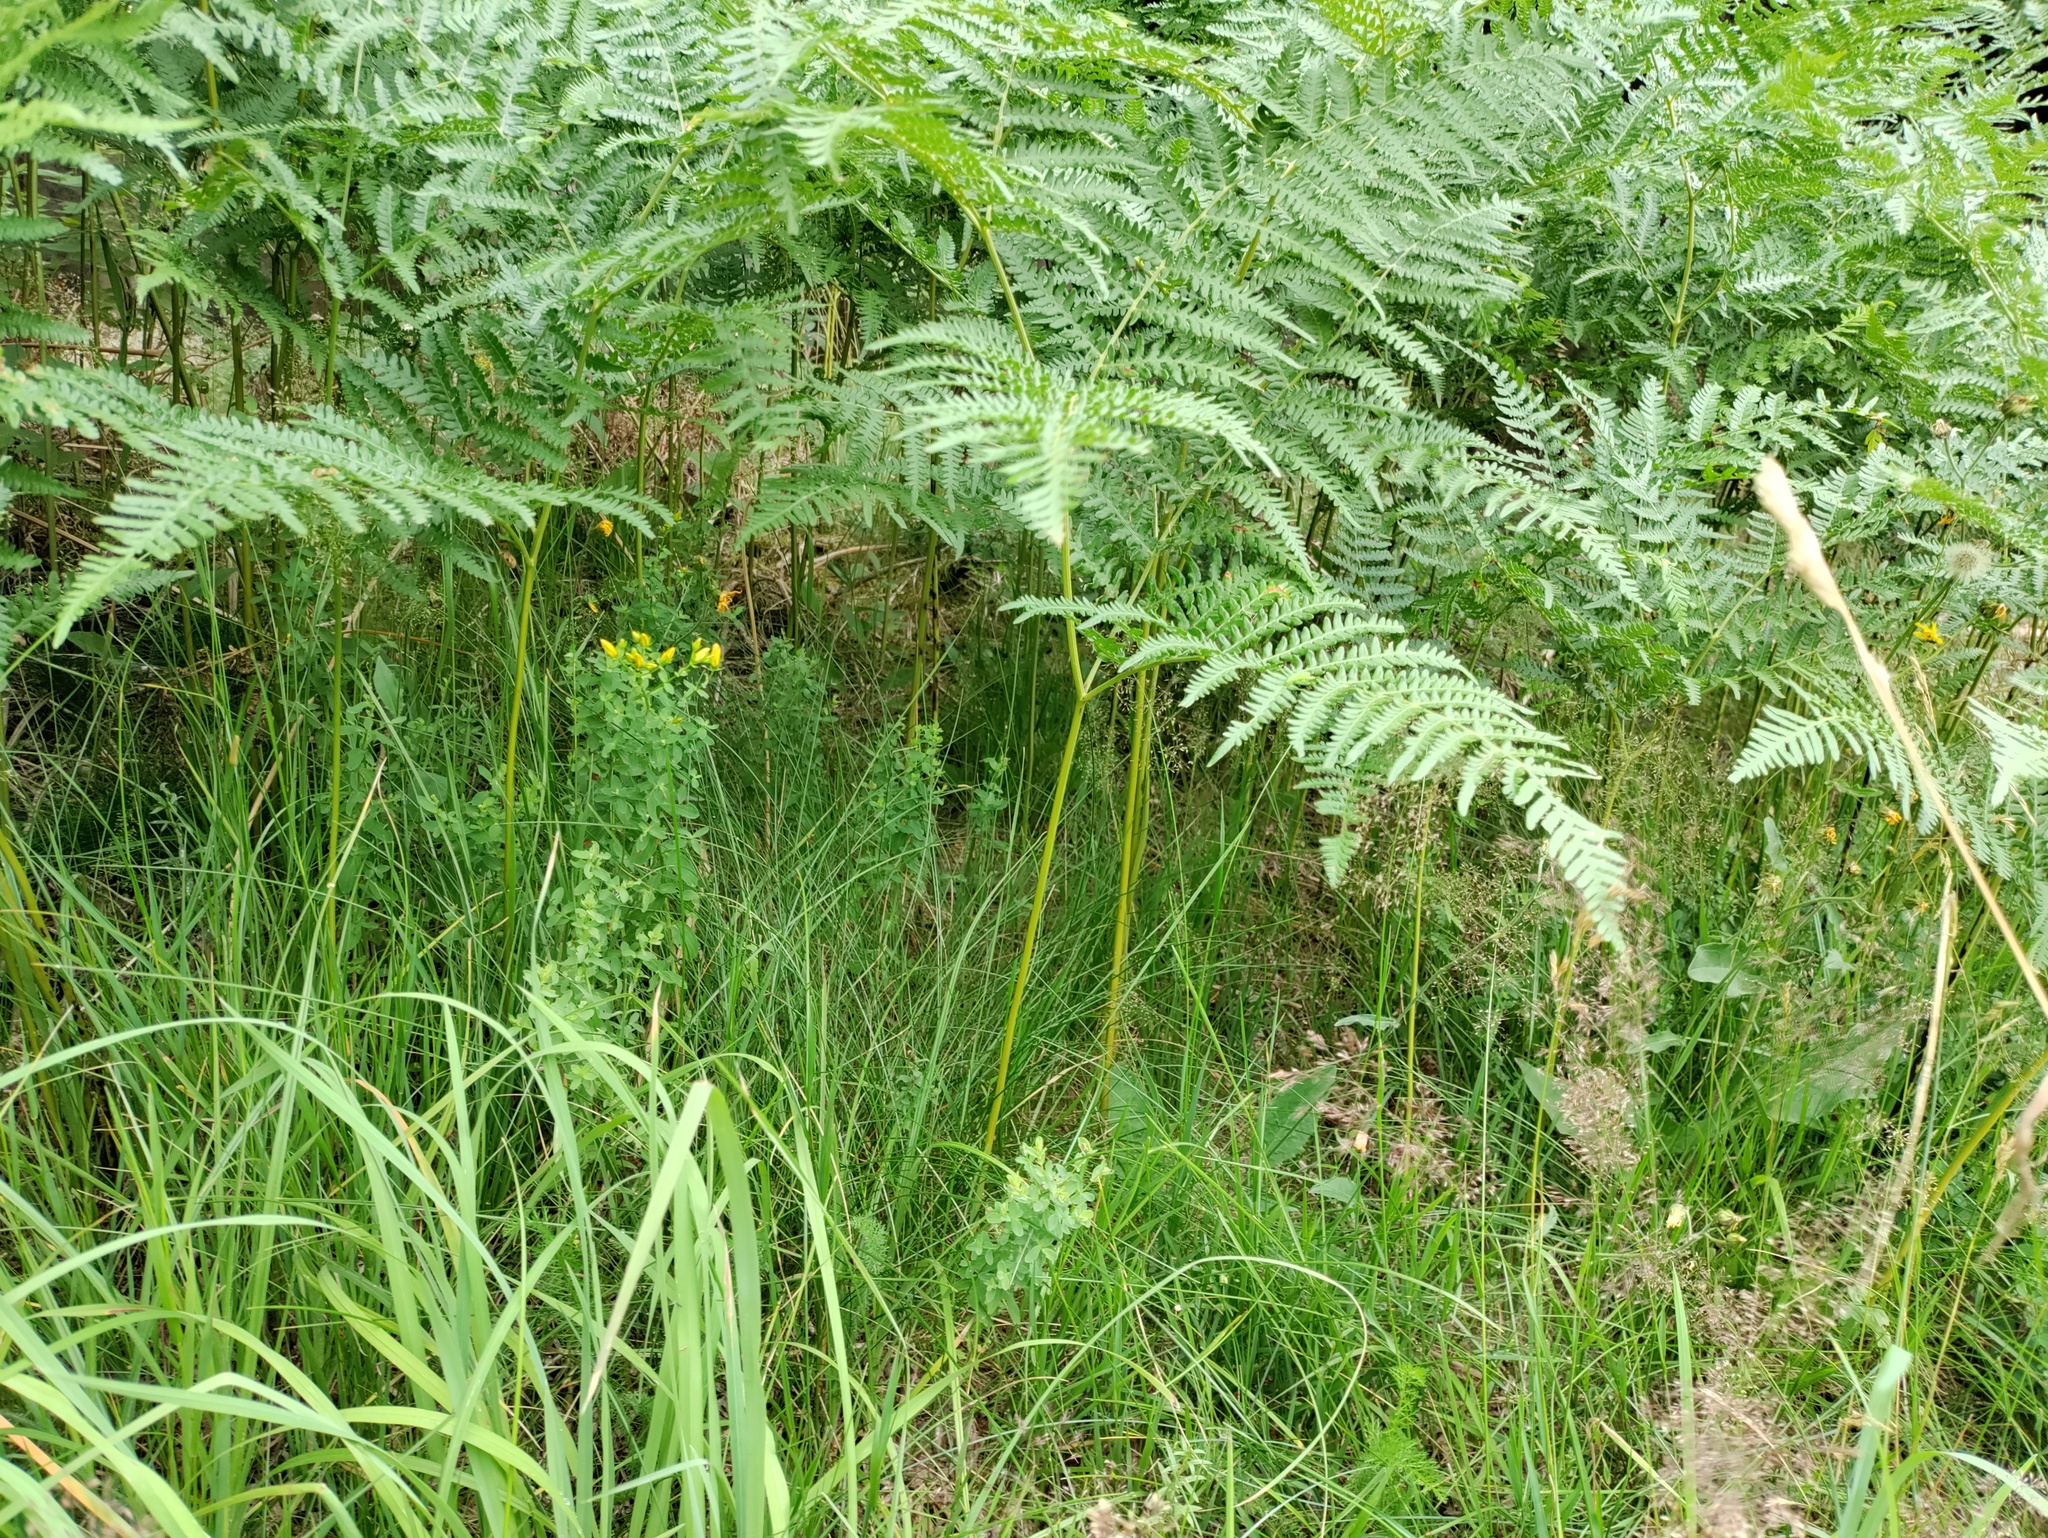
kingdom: Plantae
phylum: Tracheophyta
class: Polypodiopsida
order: Polypodiales
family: Dennstaedtiaceae
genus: Pteridium
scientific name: Pteridium aquilinum
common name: Bracken
